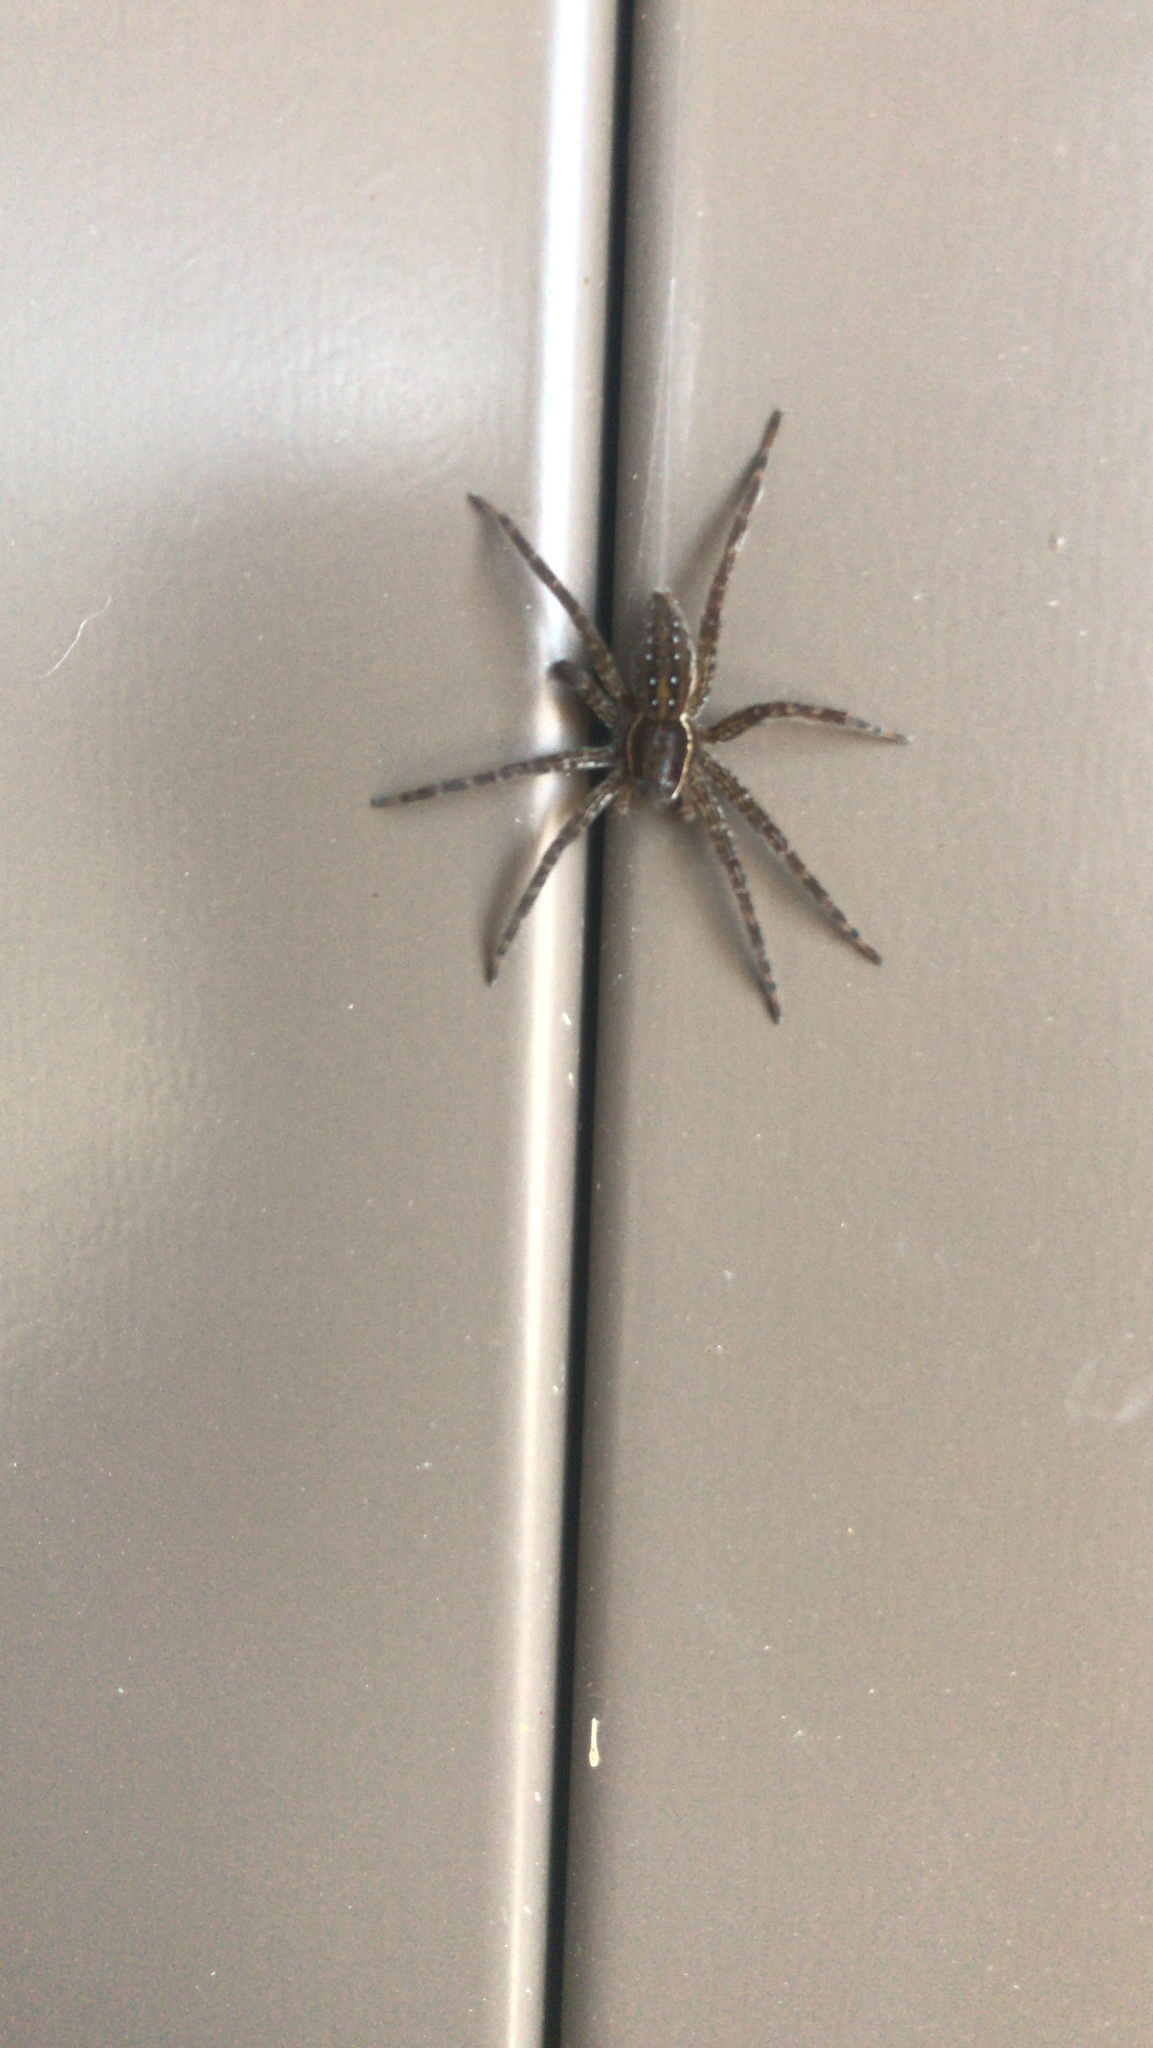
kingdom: Animalia
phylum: Arthropoda
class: Arachnida
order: Araneae
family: Pisauridae
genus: Dolomedes
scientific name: Dolomedes triton
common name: Six-spotted fishing spider
